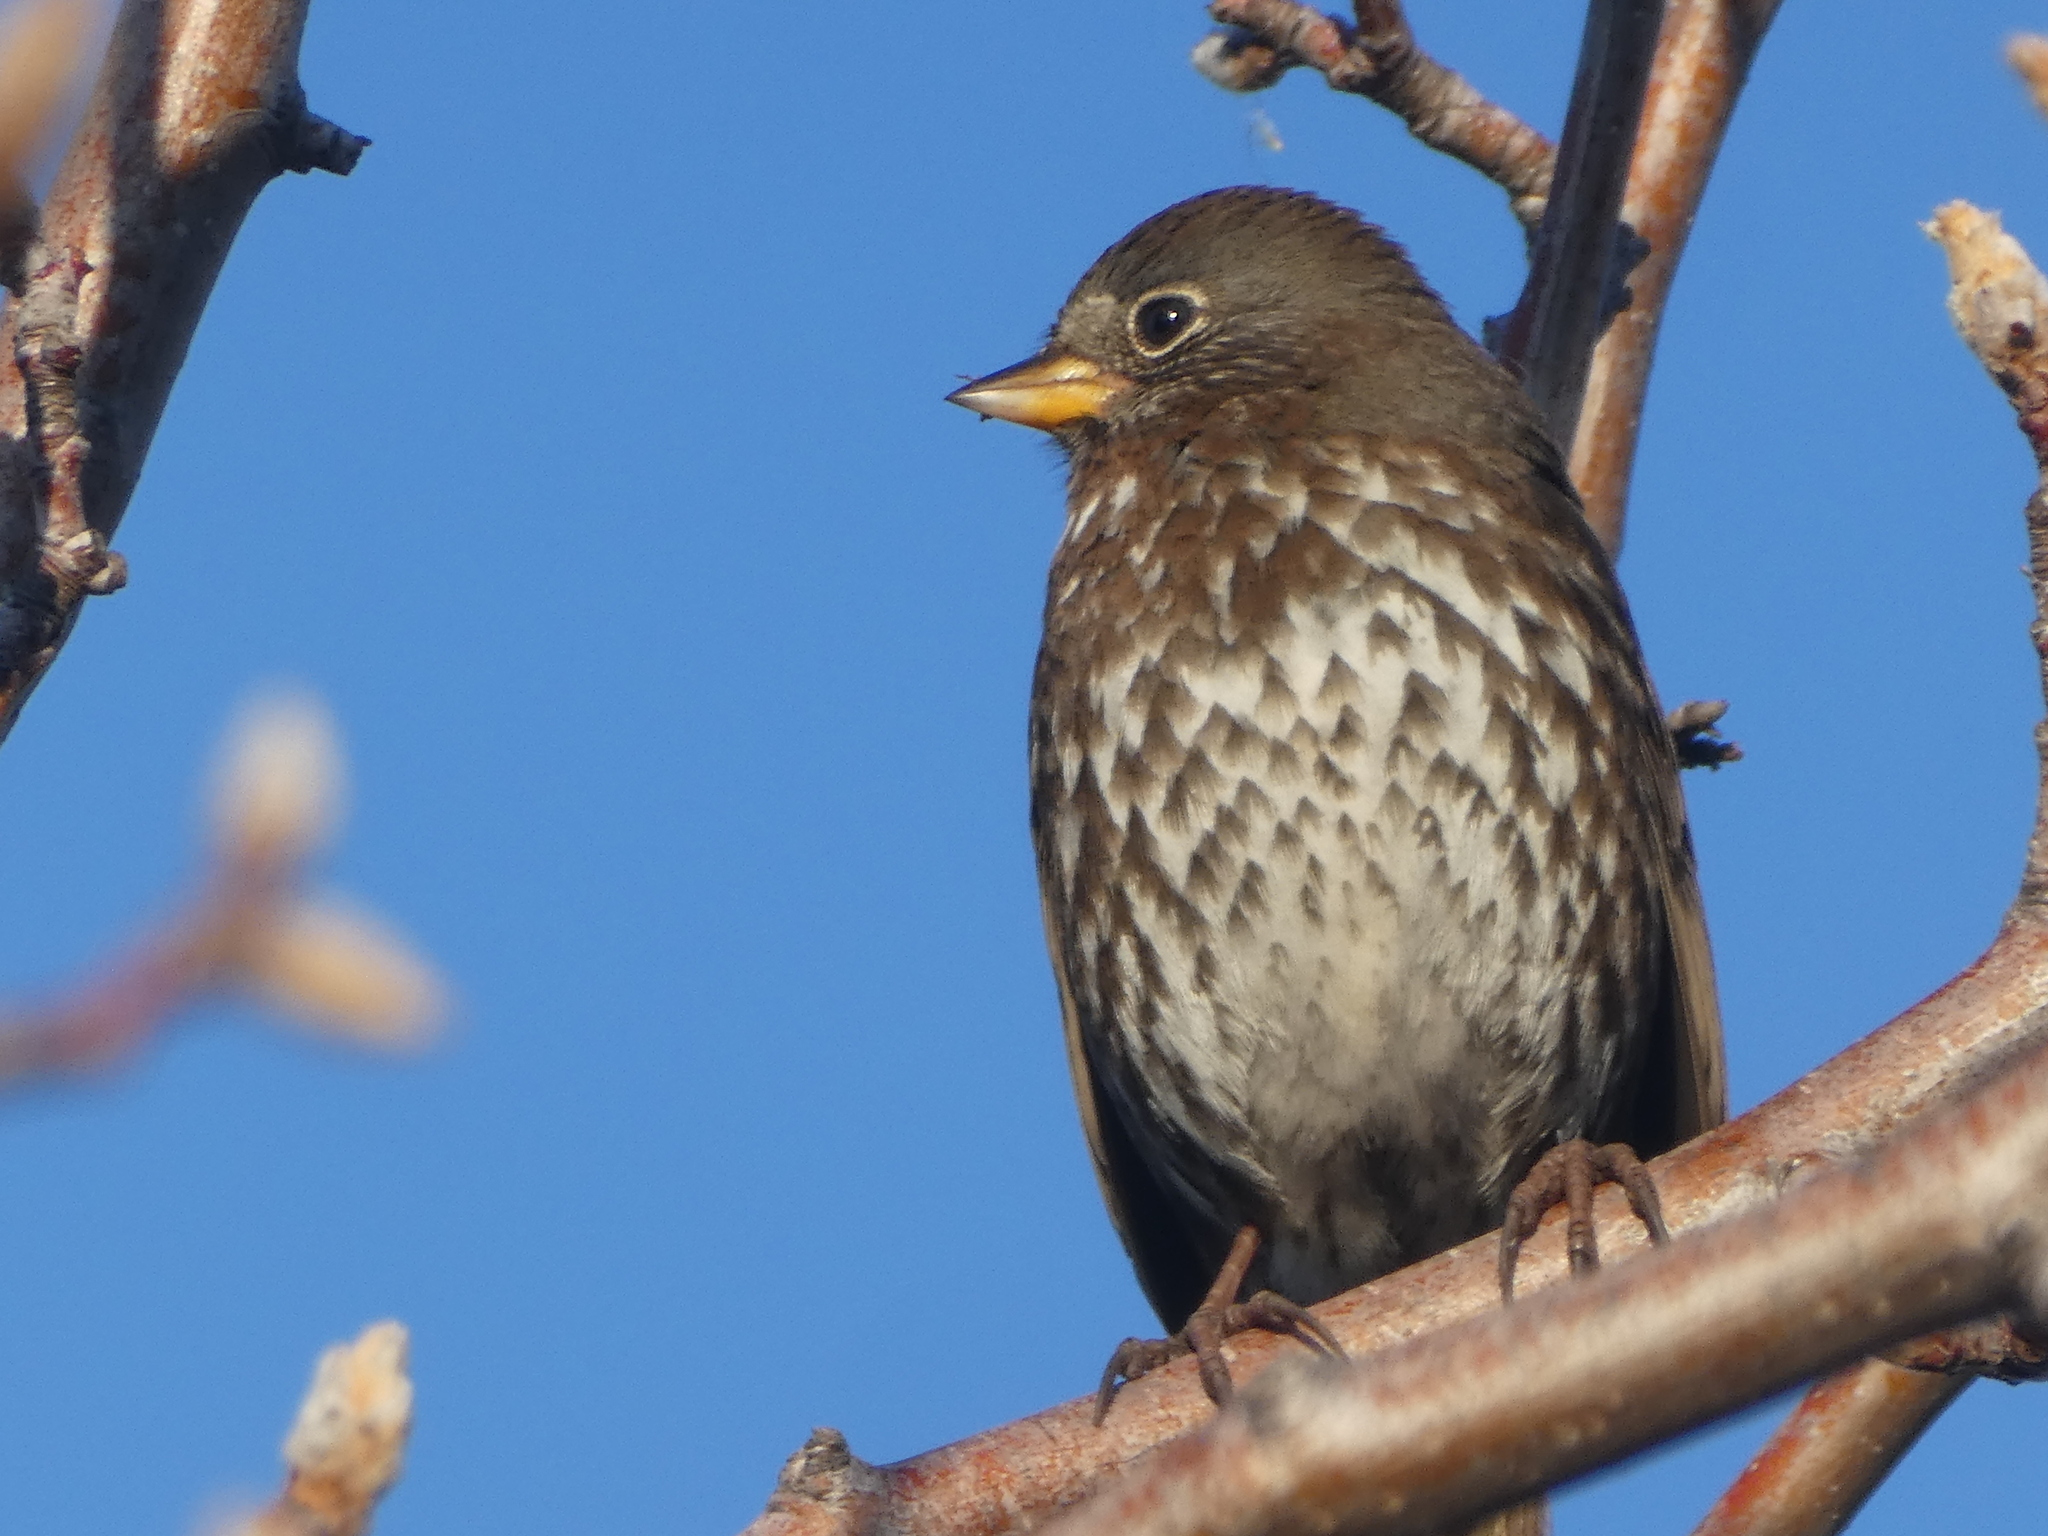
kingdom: Animalia
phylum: Chordata
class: Aves
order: Passeriformes
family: Passerellidae
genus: Passerella
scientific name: Passerella iliaca
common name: Fox sparrow
